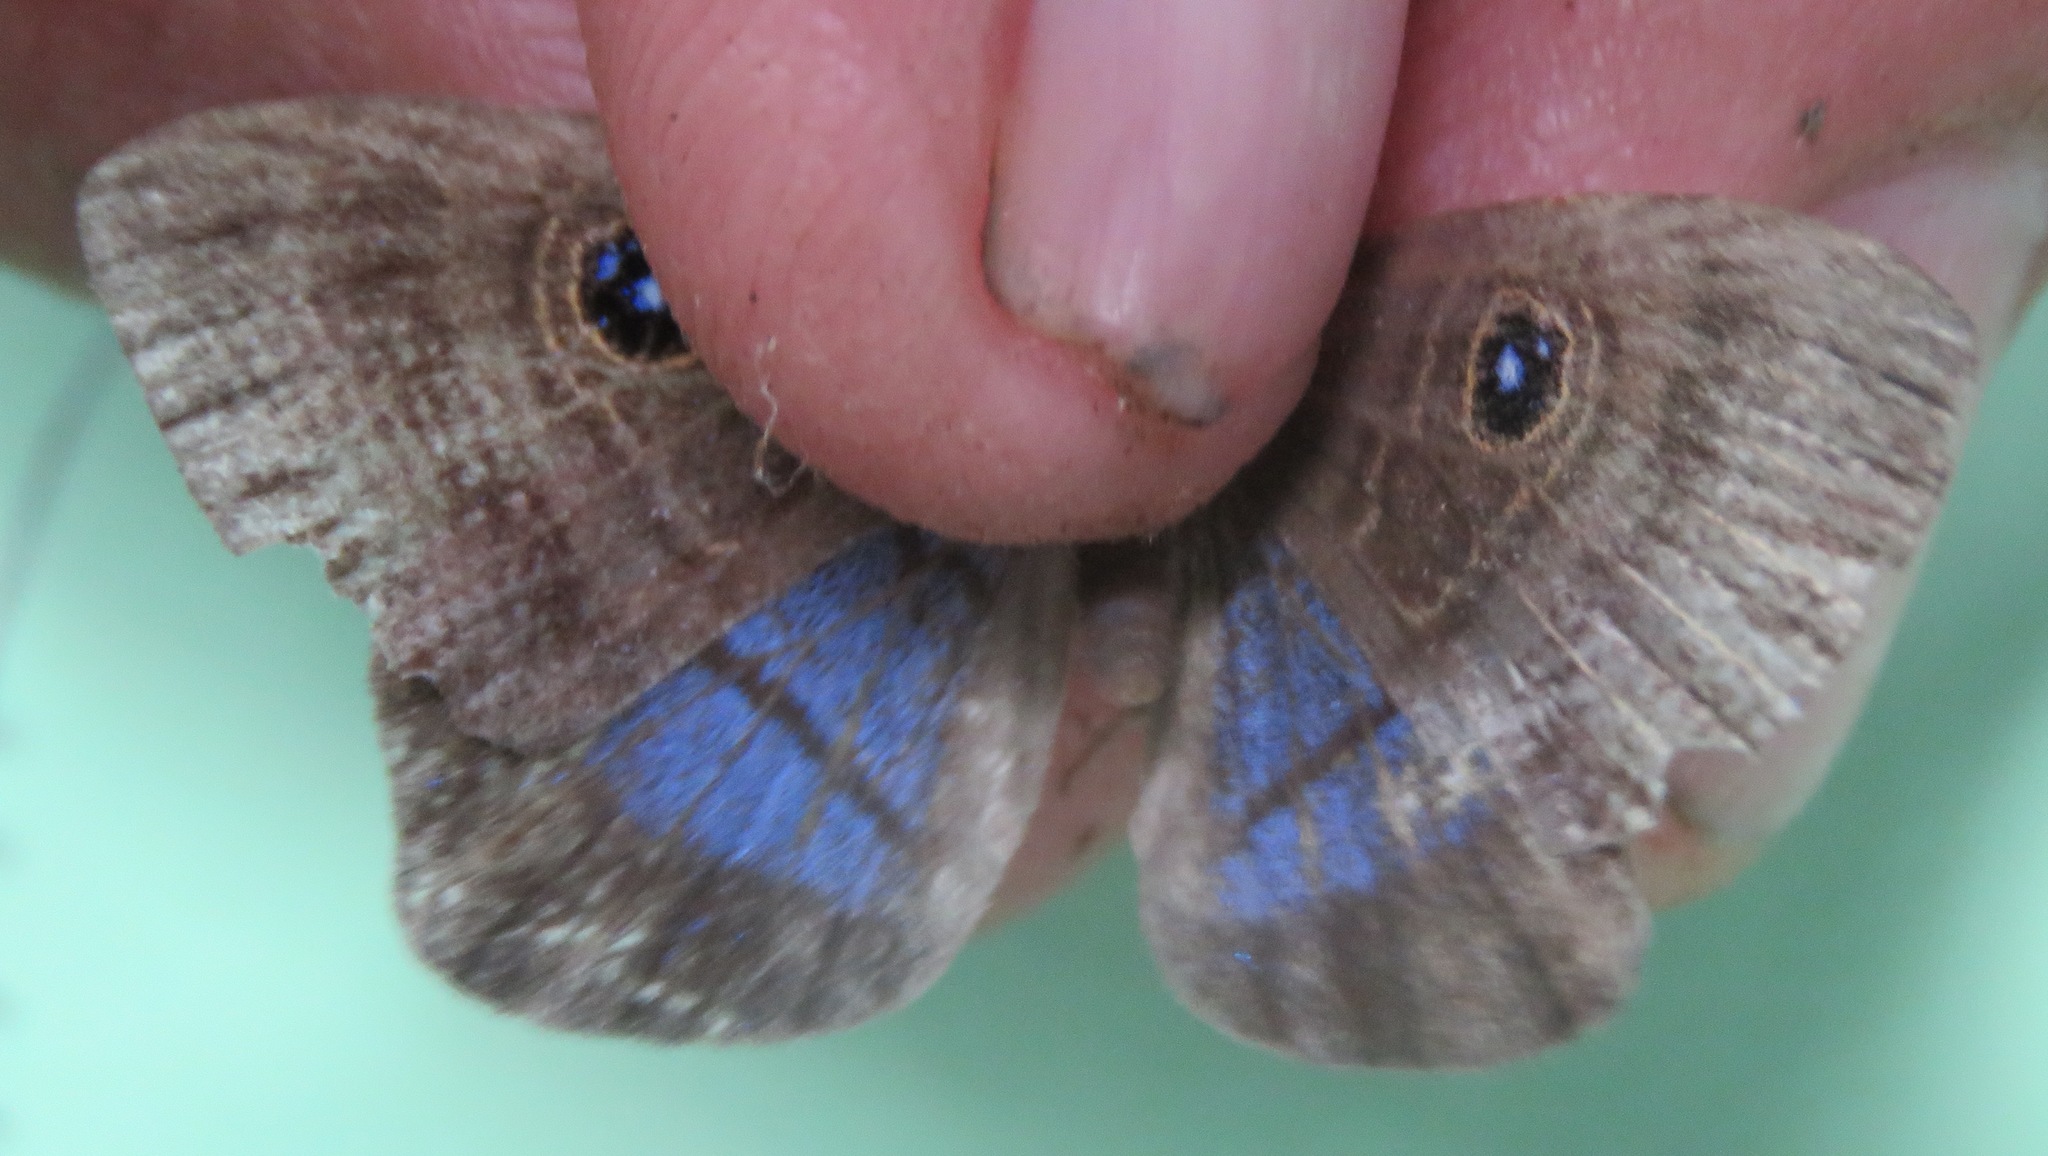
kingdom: Animalia
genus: Mesosemia
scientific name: Mesosemia lamachus
